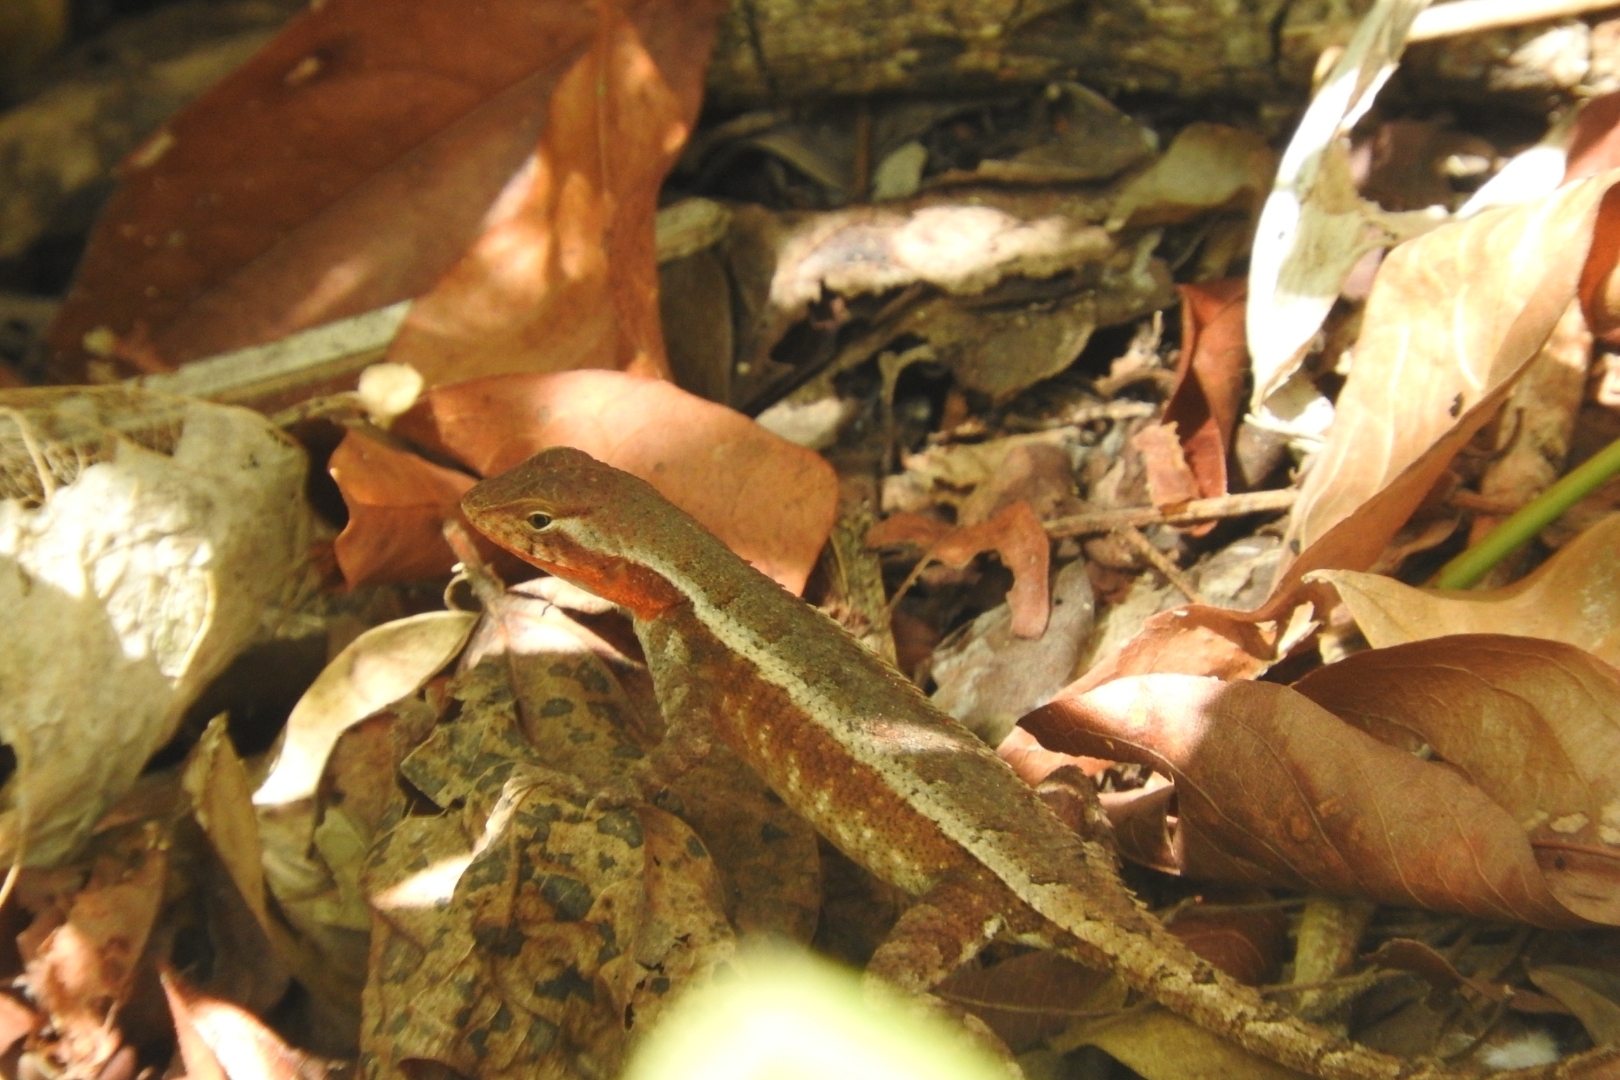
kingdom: Animalia
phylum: Chordata
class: Squamata
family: Phrynosomatidae
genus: Sceloporus
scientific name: Sceloporus chrysostictus
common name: Yellow-spotted spiny lizard
